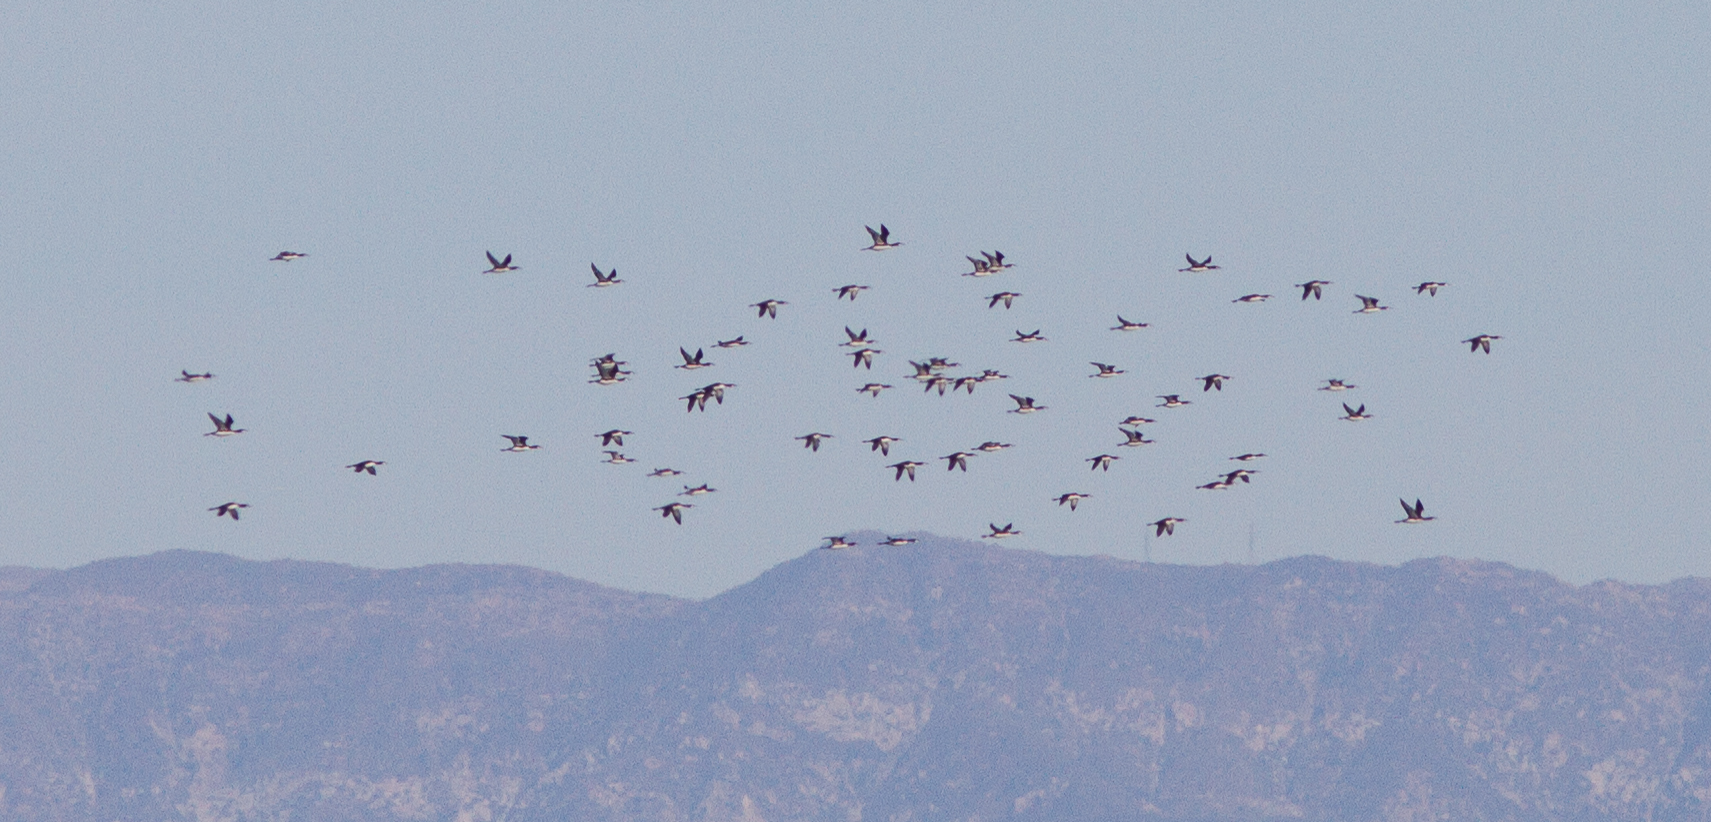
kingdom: Animalia
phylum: Chordata
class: Aves
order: Gaviiformes
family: Gaviidae
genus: Gavia
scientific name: Gavia pacifica
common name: Pacific loon
